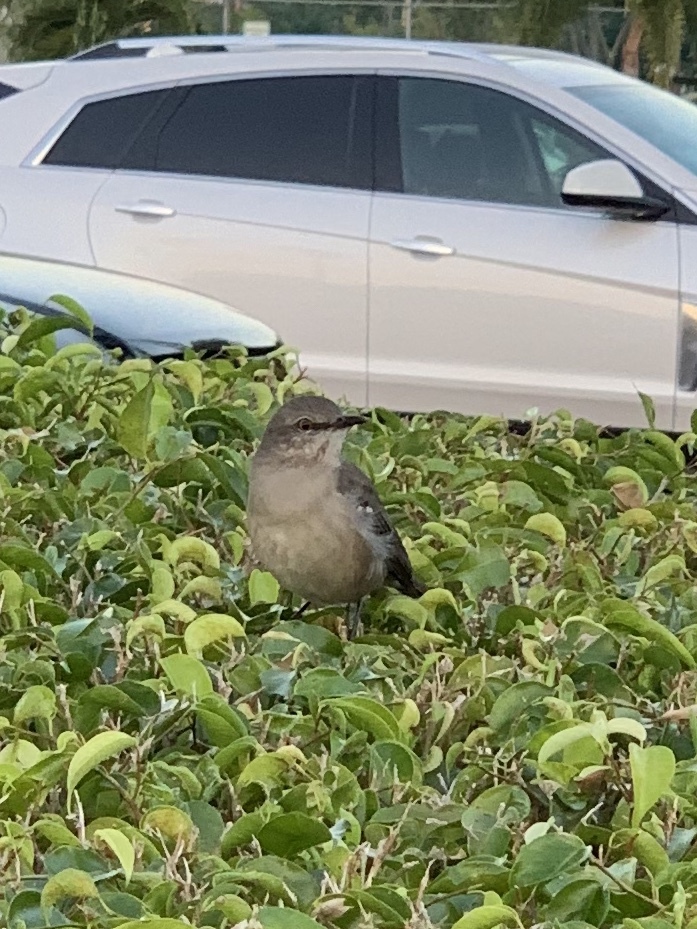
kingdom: Animalia
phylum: Chordata
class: Aves
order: Passeriformes
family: Mimidae
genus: Mimus
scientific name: Mimus polyglottos
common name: Northern mockingbird
